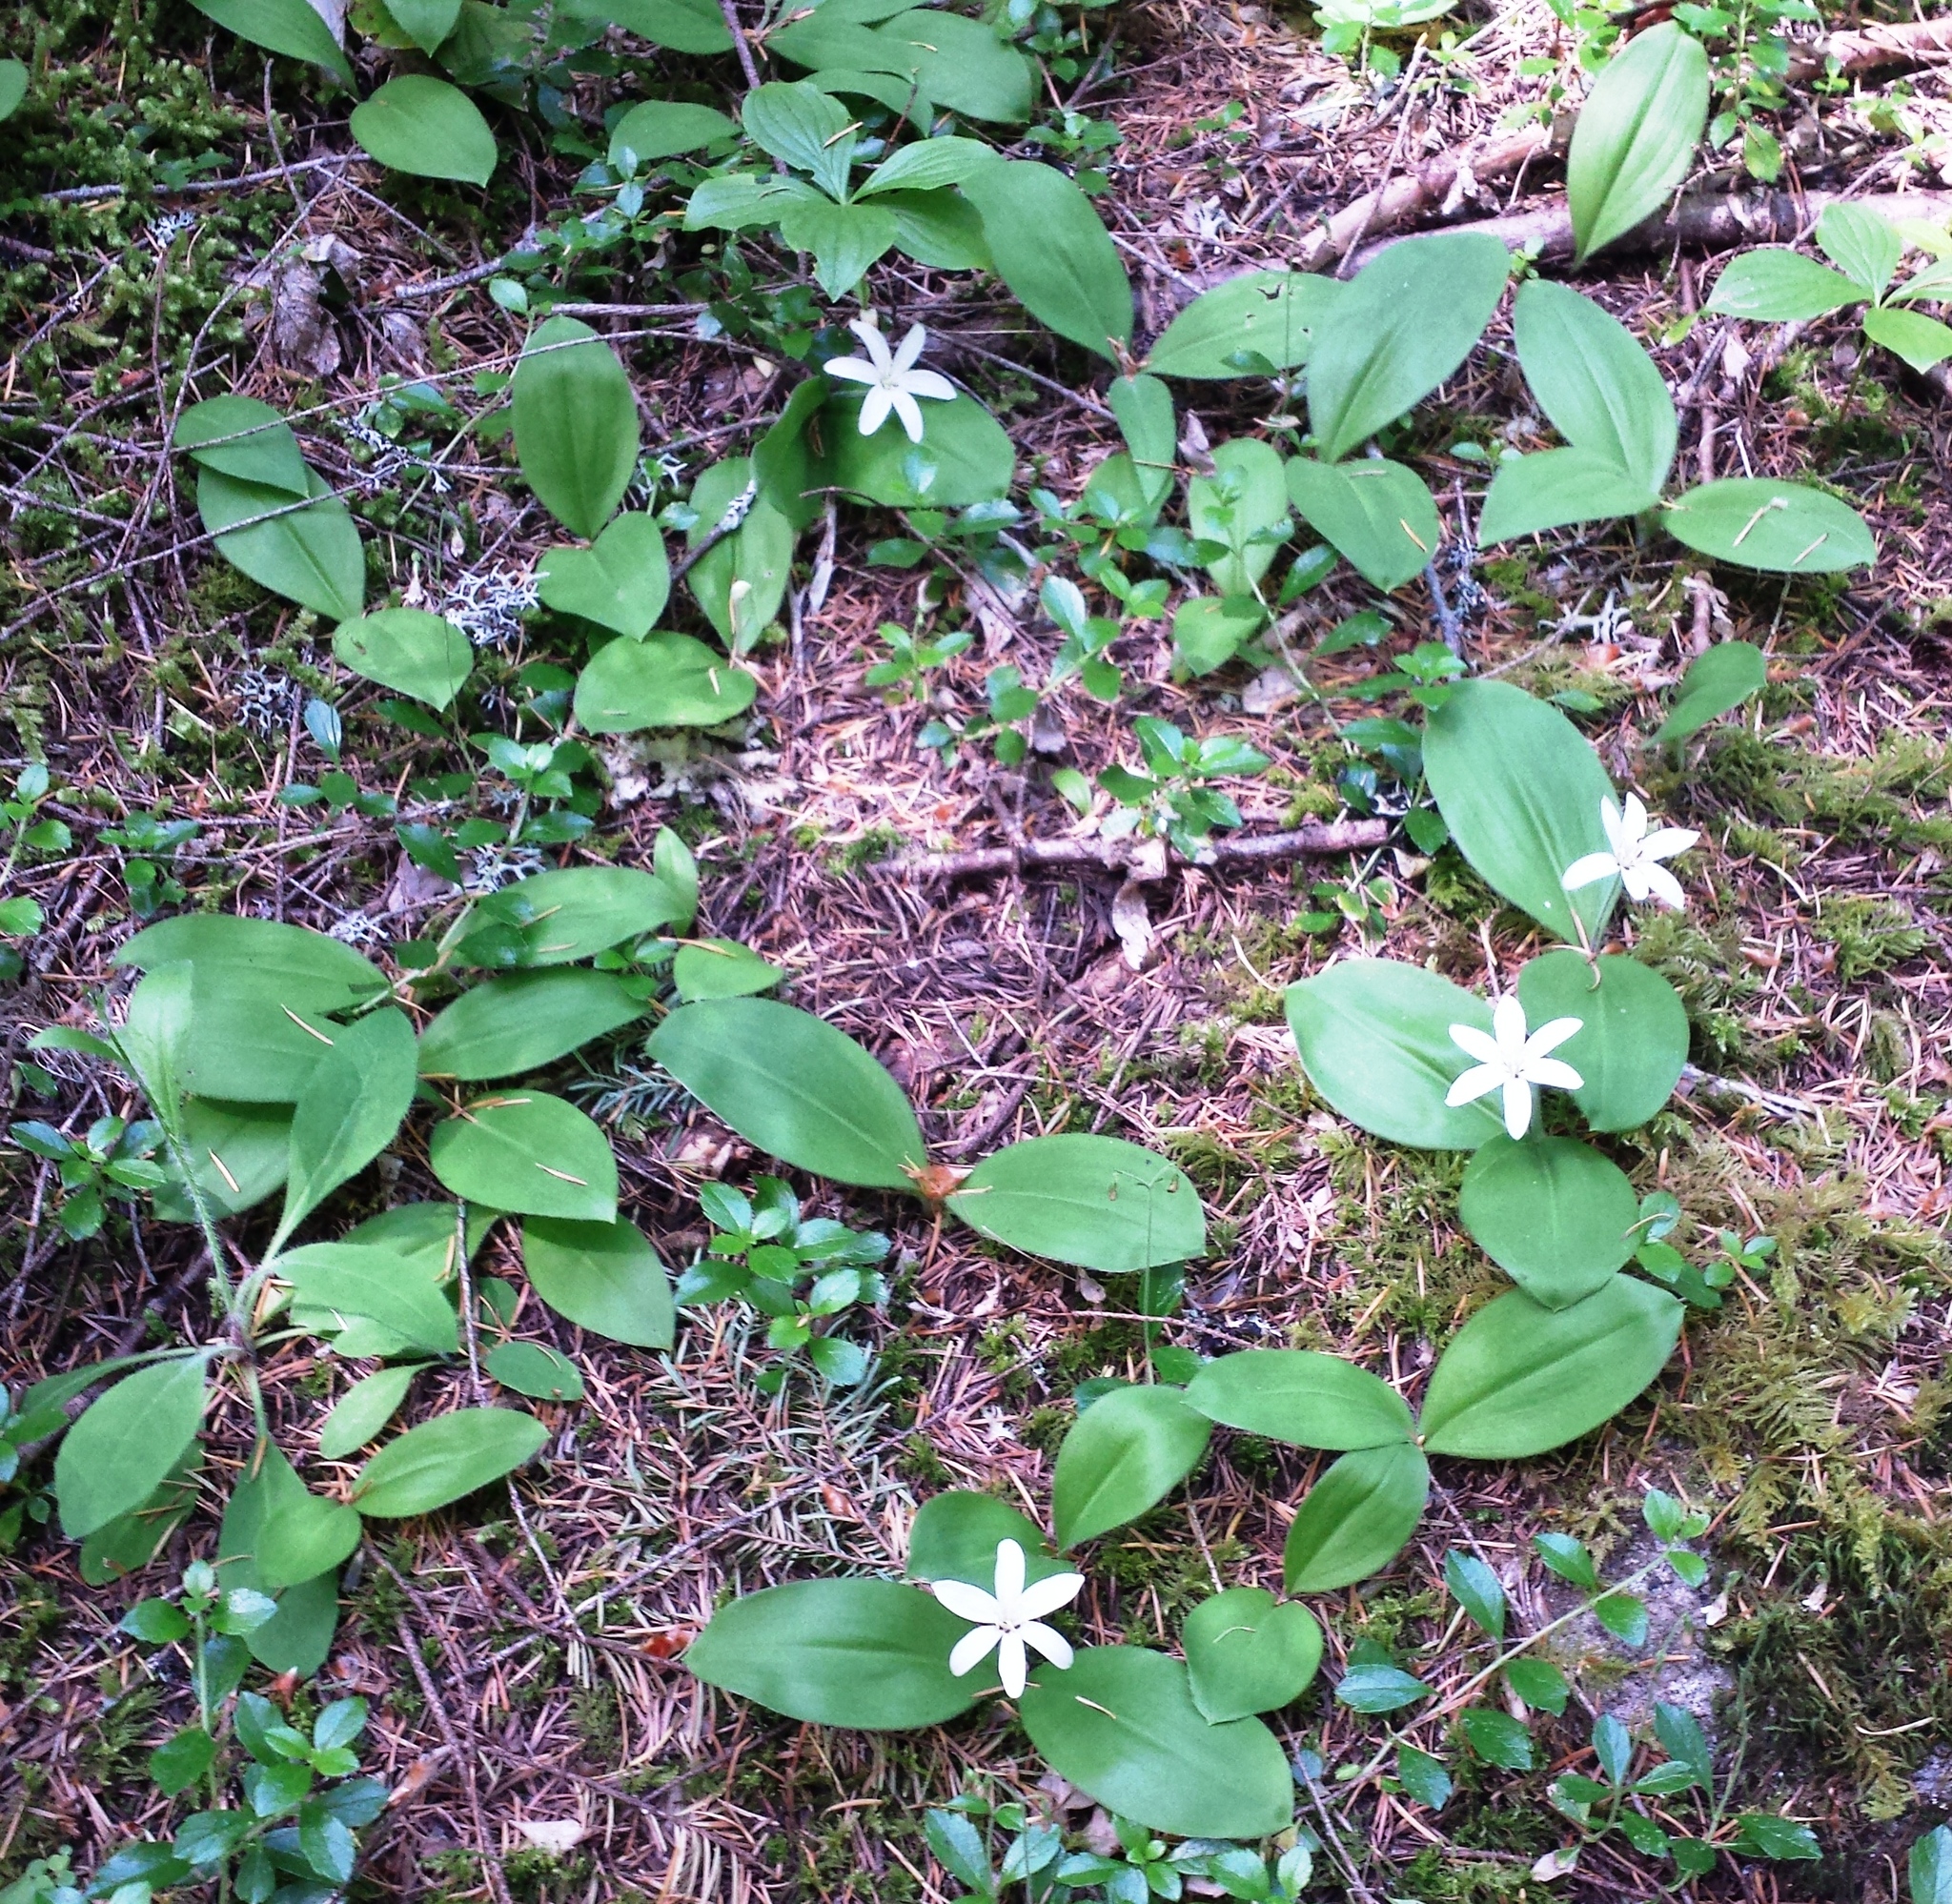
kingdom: Plantae
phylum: Tracheophyta
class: Liliopsida
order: Liliales
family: Liliaceae
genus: Clintonia
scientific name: Clintonia uniflora
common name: Queen's cup
